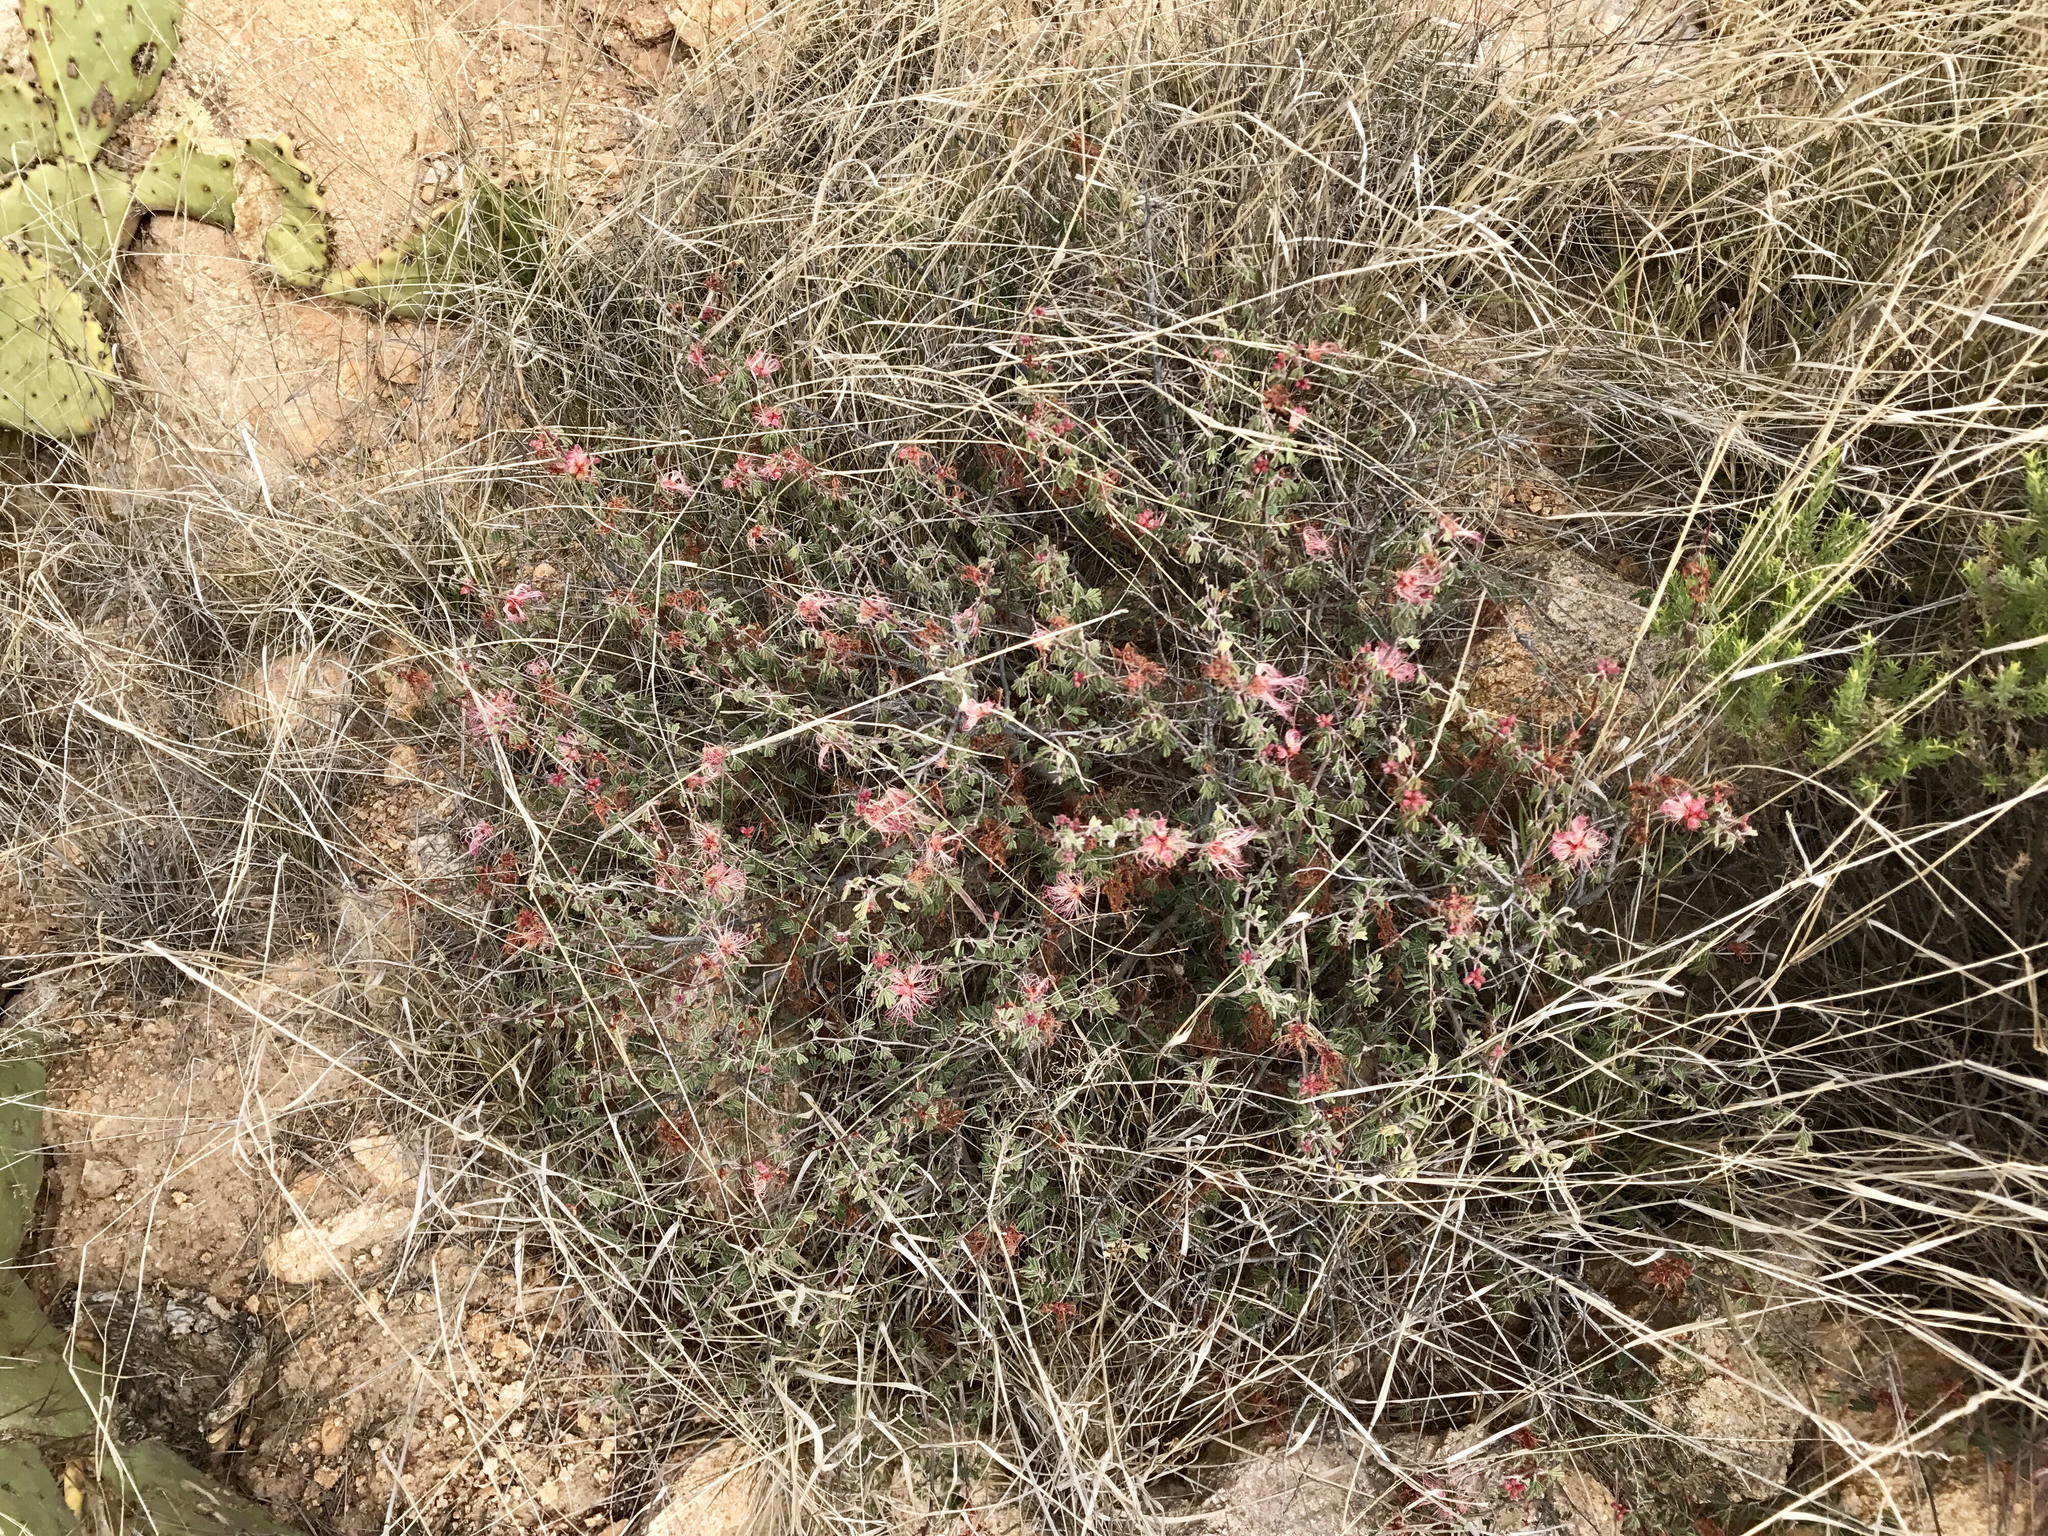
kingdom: Plantae
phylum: Tracheophyta
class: Magnoliopsida
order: Fabales
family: Fabaceae
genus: Calliandra
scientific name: Calliandra eriophylla
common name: Fairy-duster
